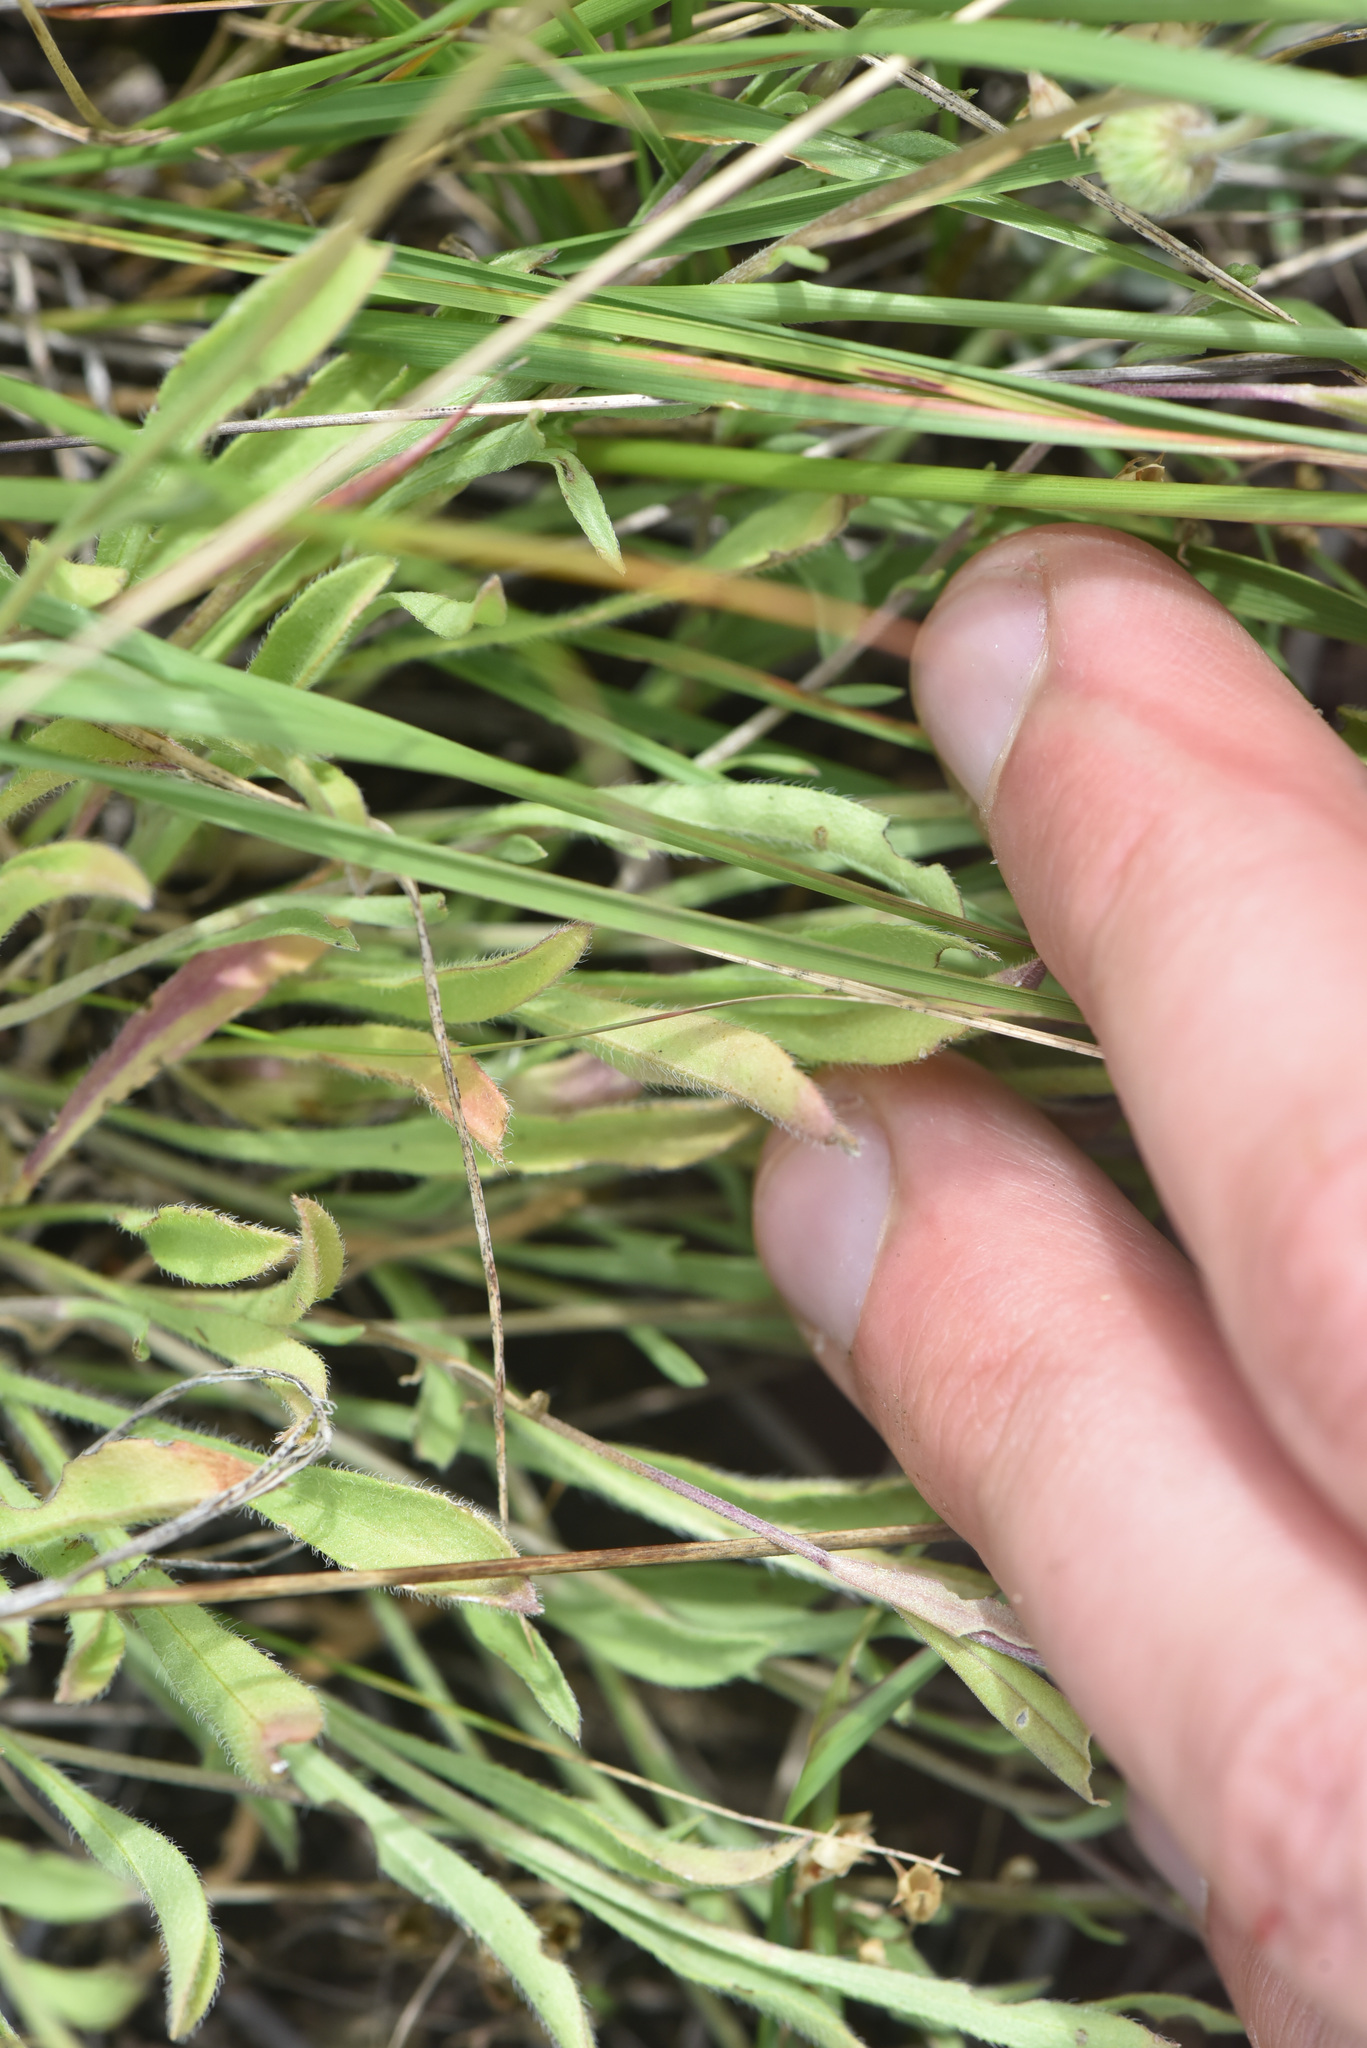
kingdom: Plantae
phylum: Tracheophyta
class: Magnoliopsida
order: Asterales
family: Asteraceae
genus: Erigeron
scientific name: Erigeron flagellaris
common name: Running fleabane
